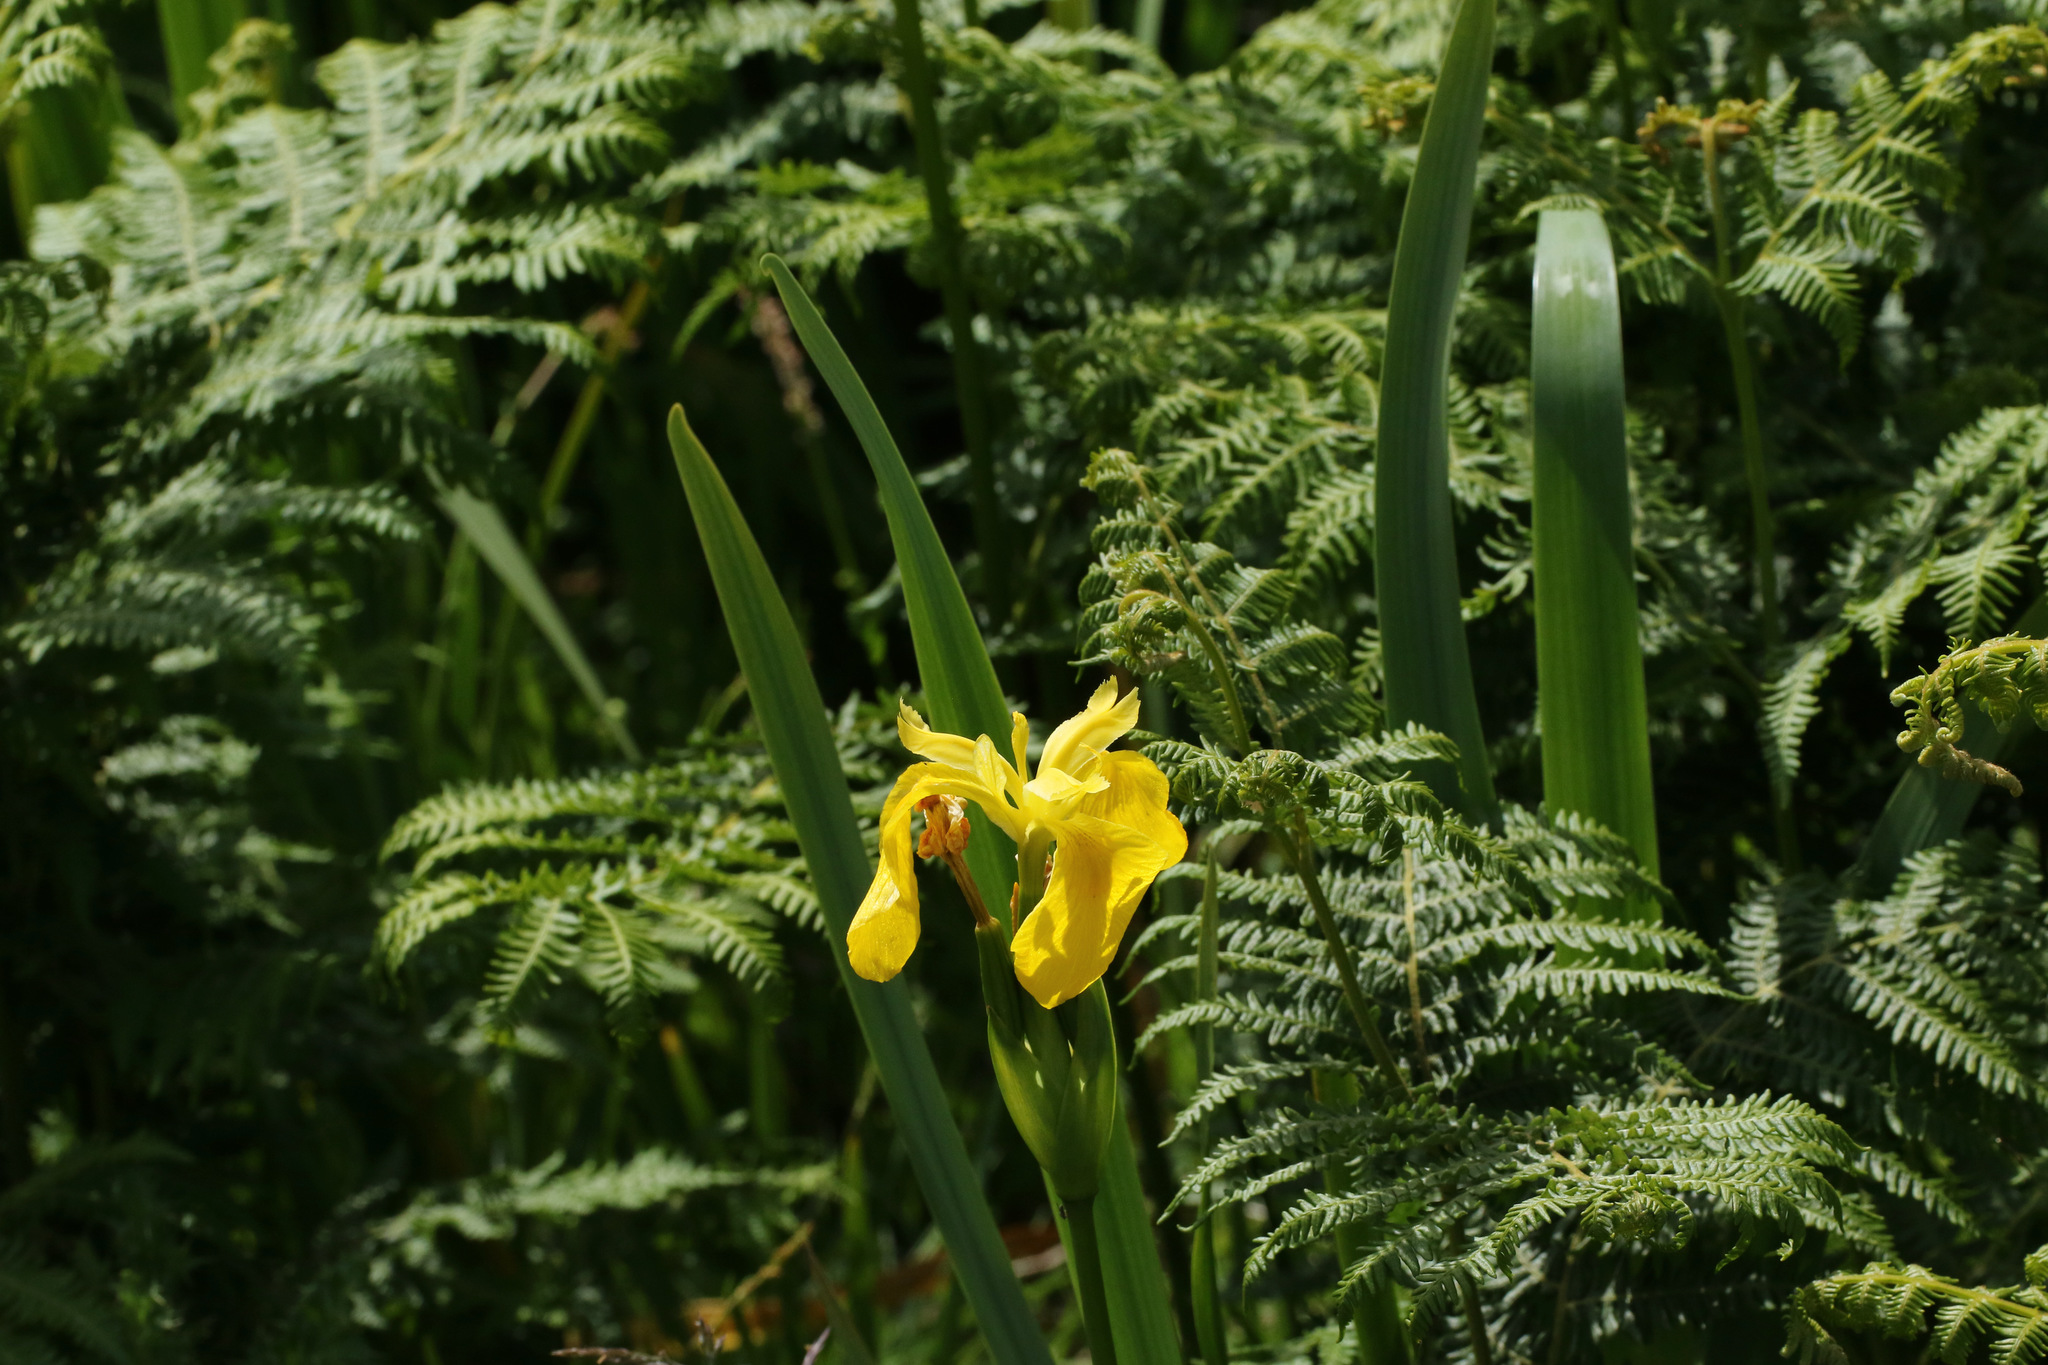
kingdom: Plantae
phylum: Tracheophyta
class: Liliopsida
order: Asparagales
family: Iridaceae
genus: Iris
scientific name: Iris pseudacorus
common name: Yellow flag
